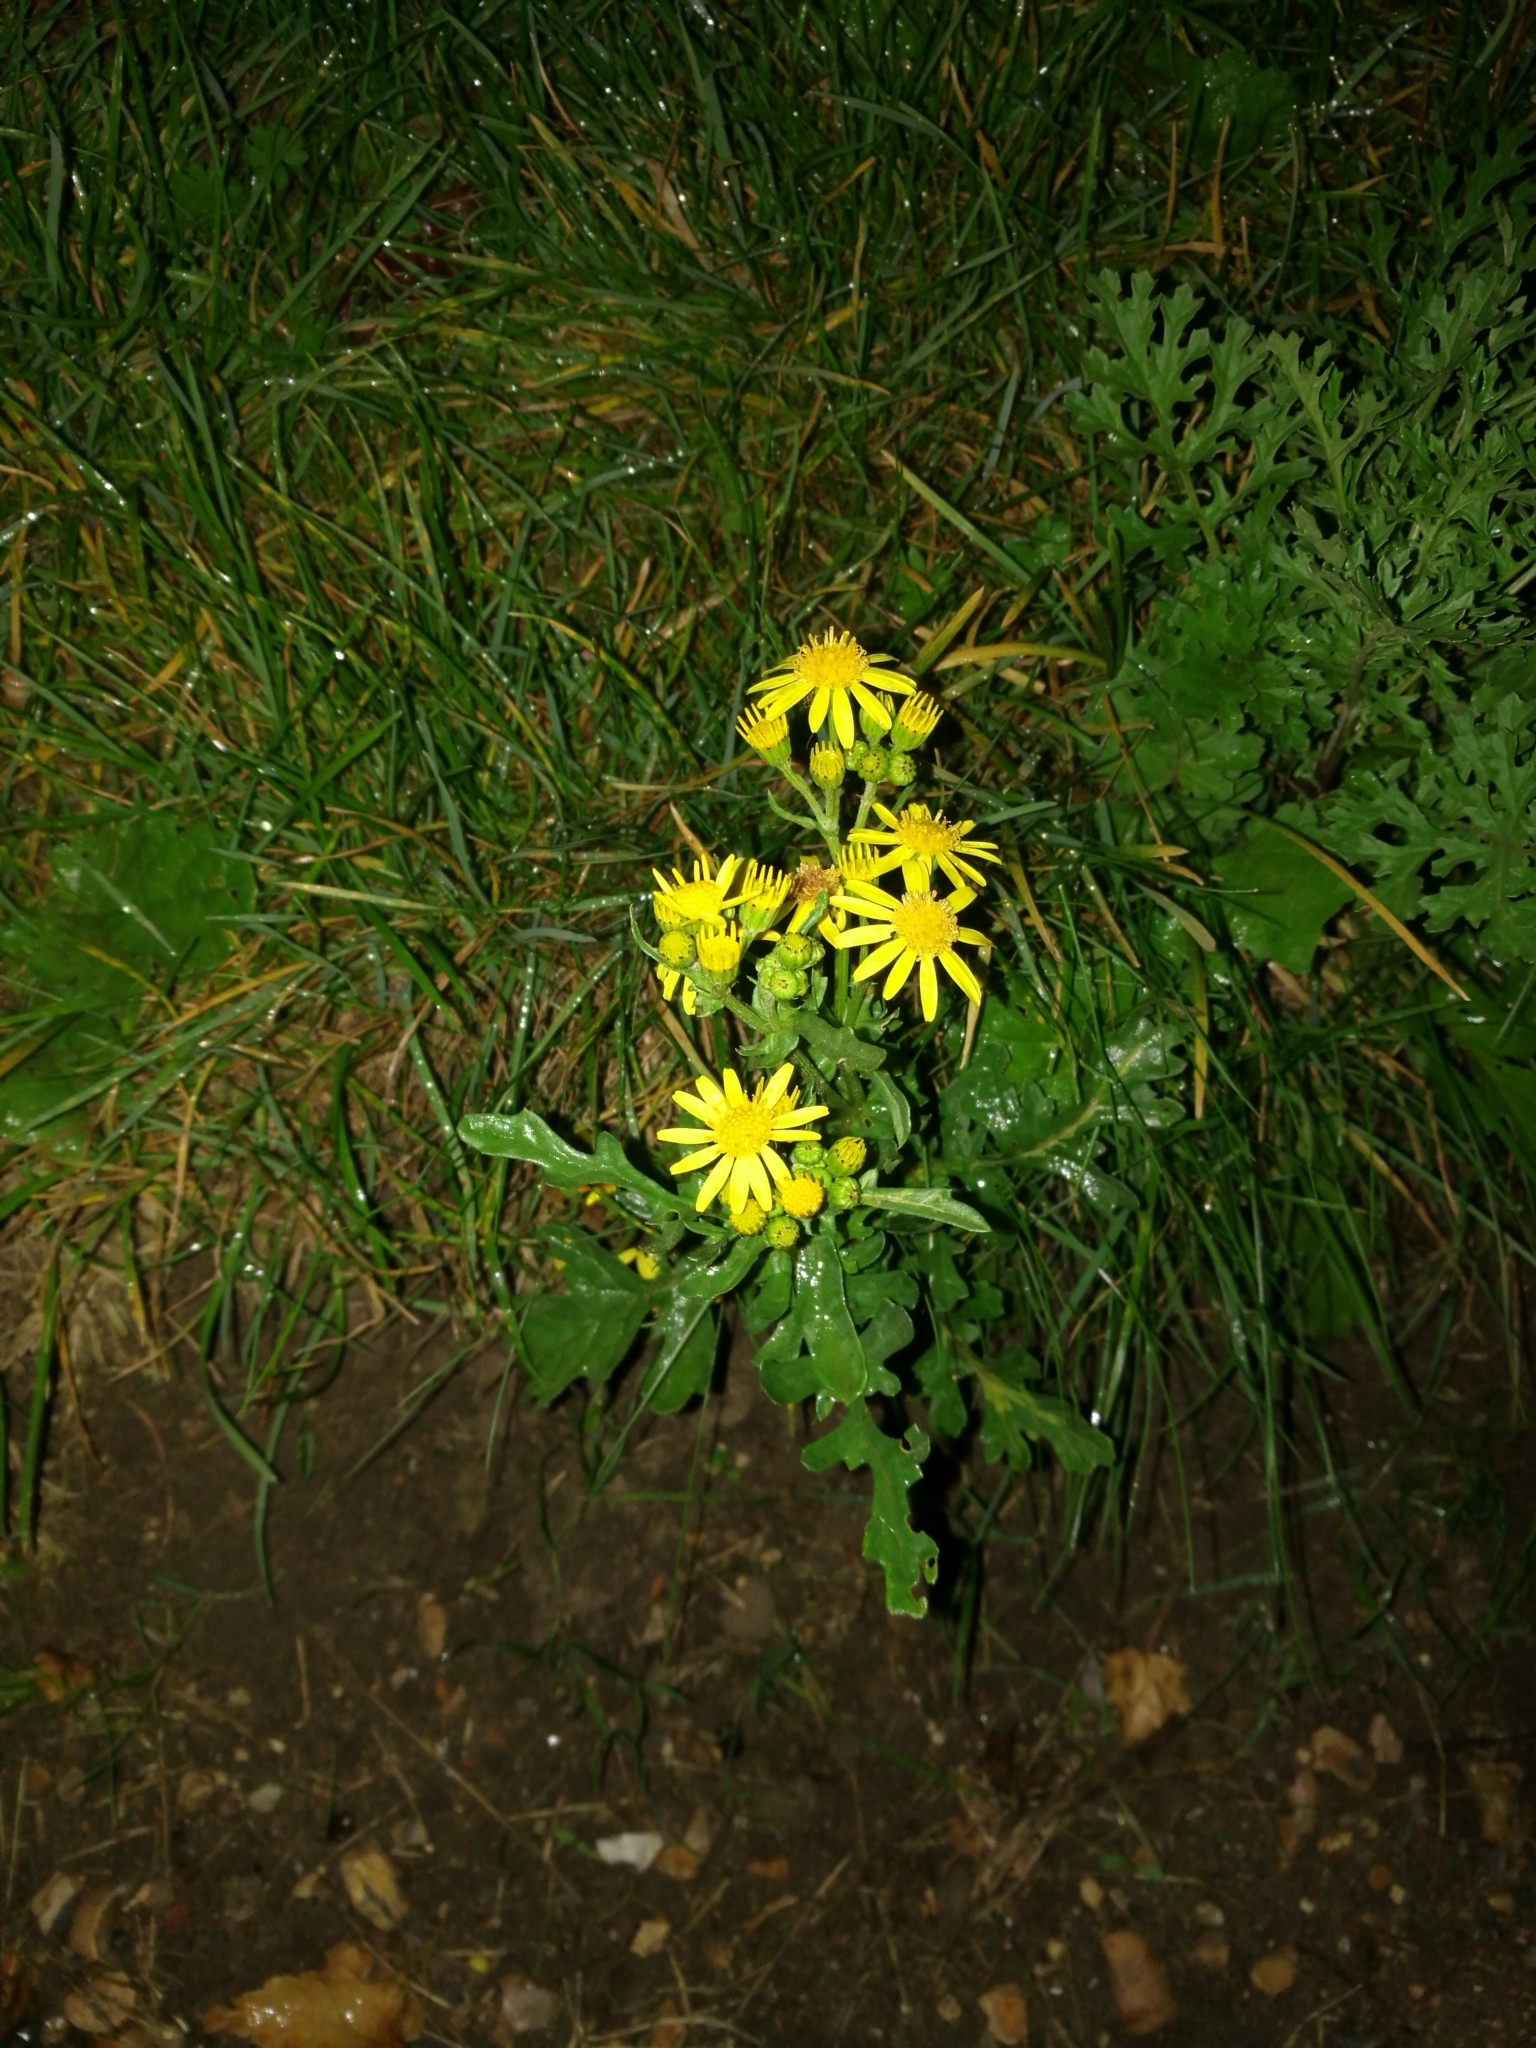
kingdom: Plantae
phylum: Tracheophyta
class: Magnoliopsida
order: Asterales
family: Asteraceae
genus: Jacobaea
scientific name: Jacobaea vulgaris
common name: Stinking willie
